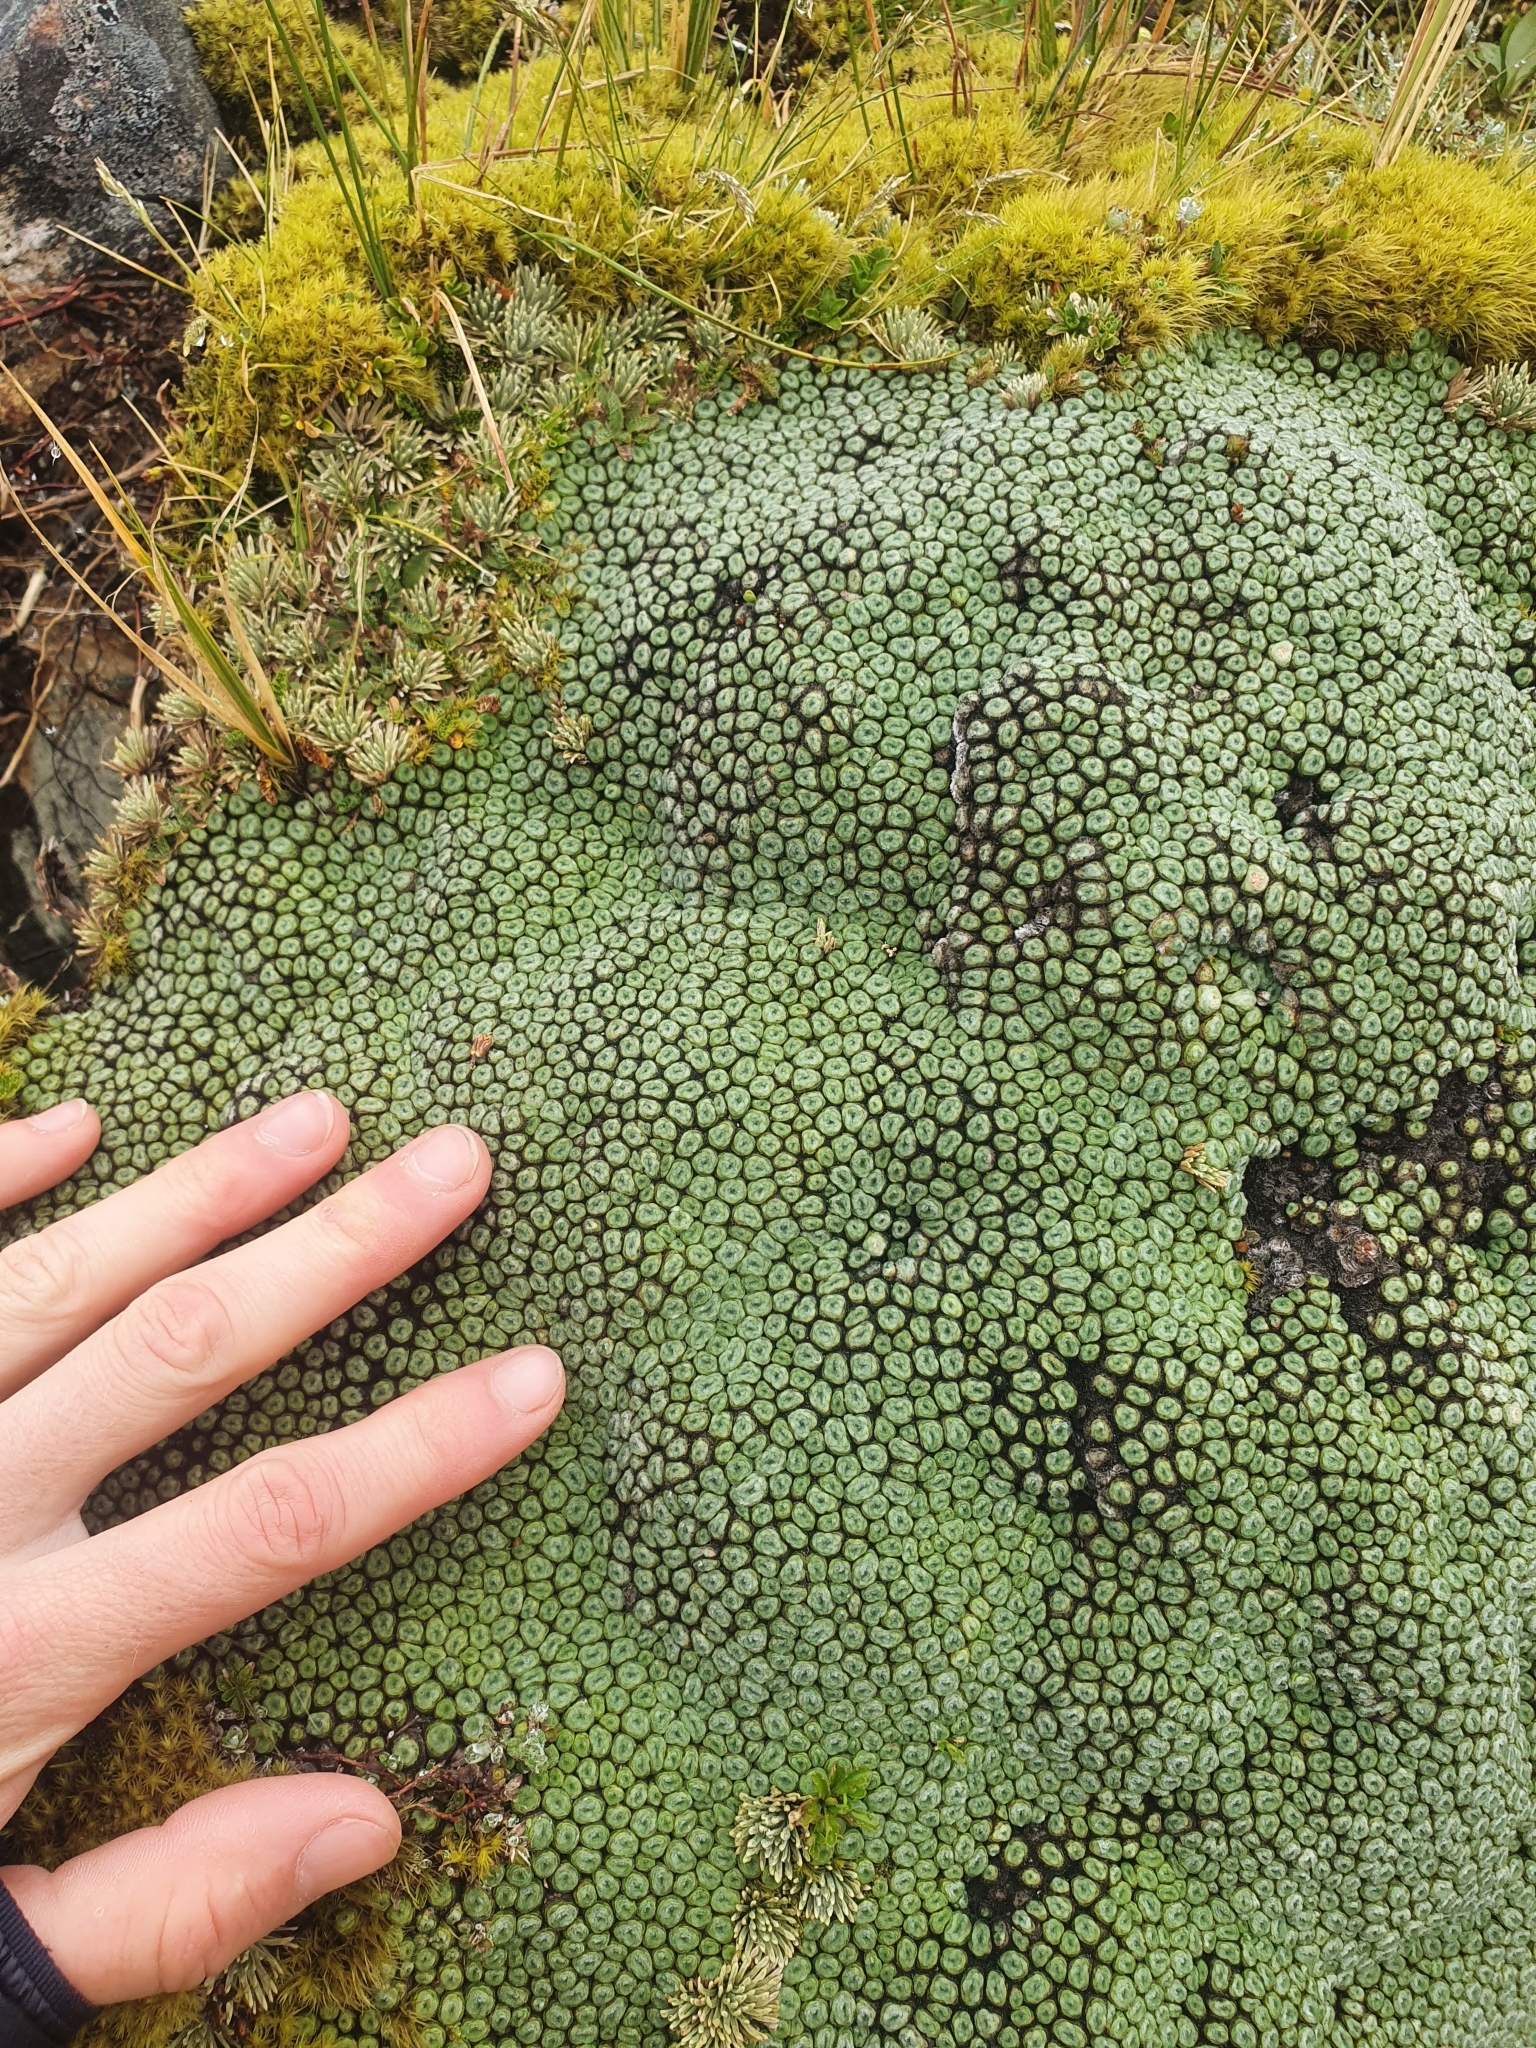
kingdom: Plantae
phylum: Tracheophyta
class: Magnoliopsida
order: Asterales
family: Asteraceae
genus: Raoulia
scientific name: Raoulia buchananii
